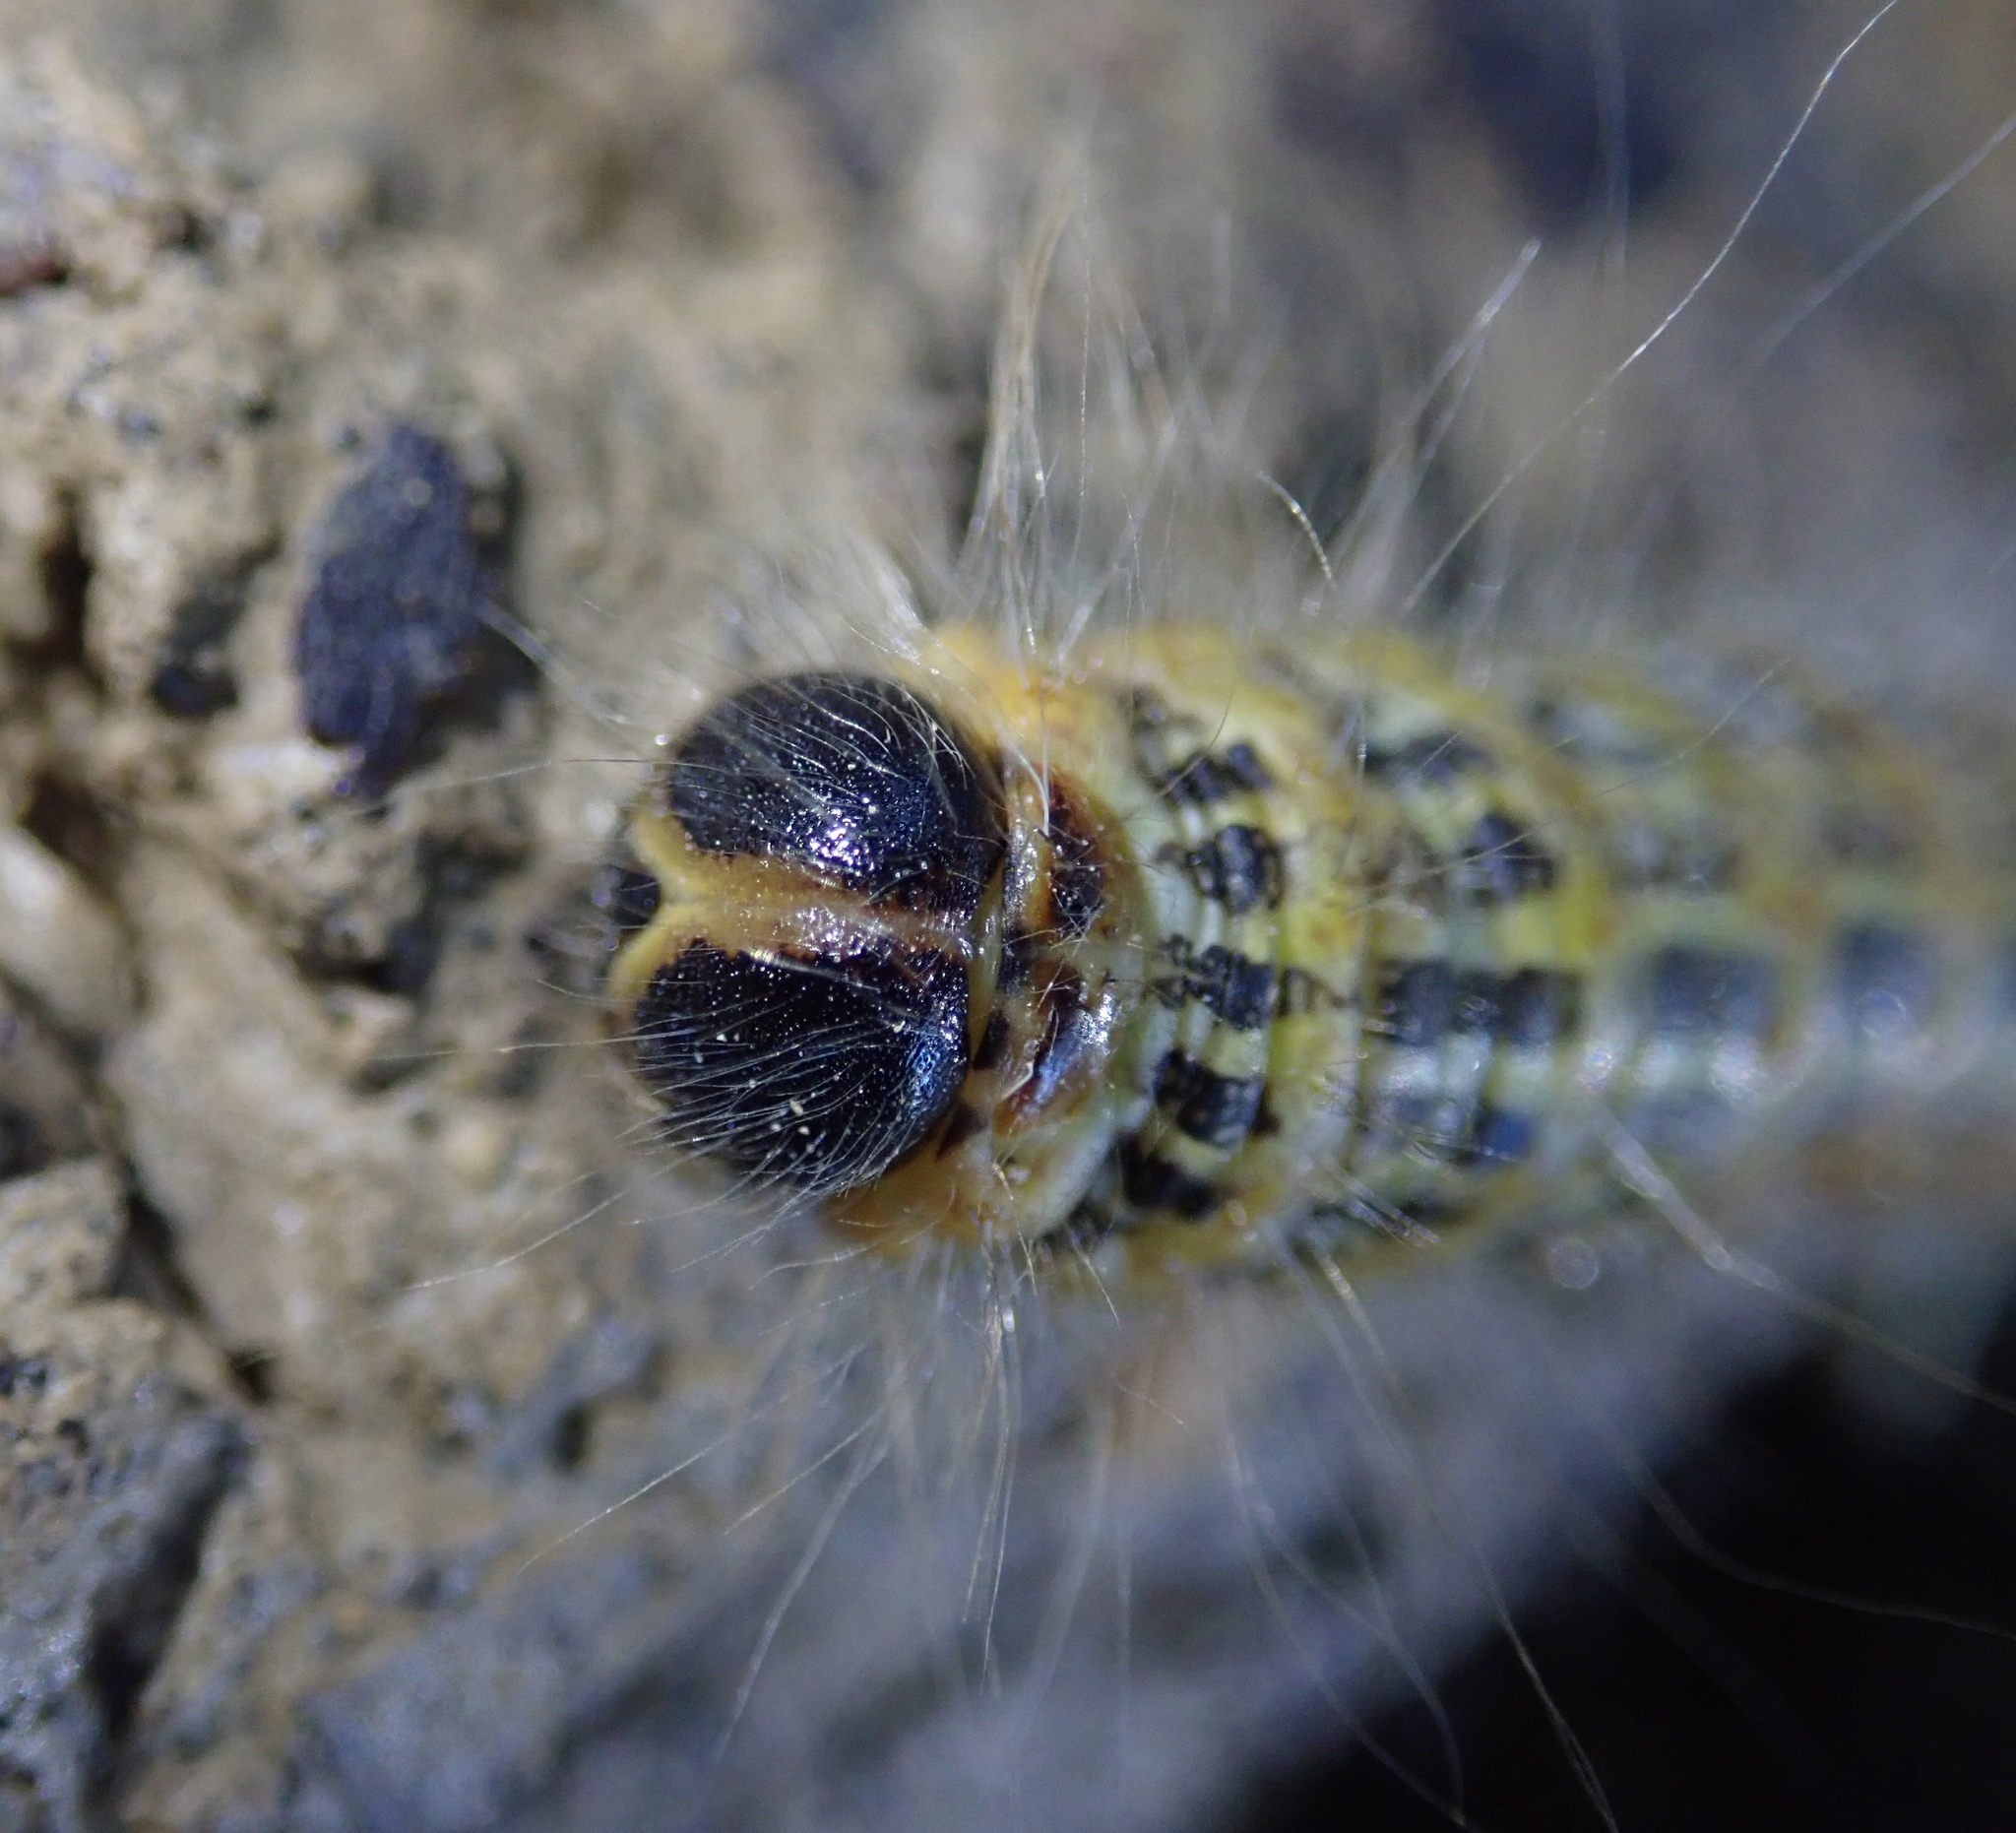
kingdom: Animalia
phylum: Arthropoda
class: Insecta
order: Lepidoptera
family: Notodontidae
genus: Phalera
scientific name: Phalera bucephala
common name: Buff-tip
